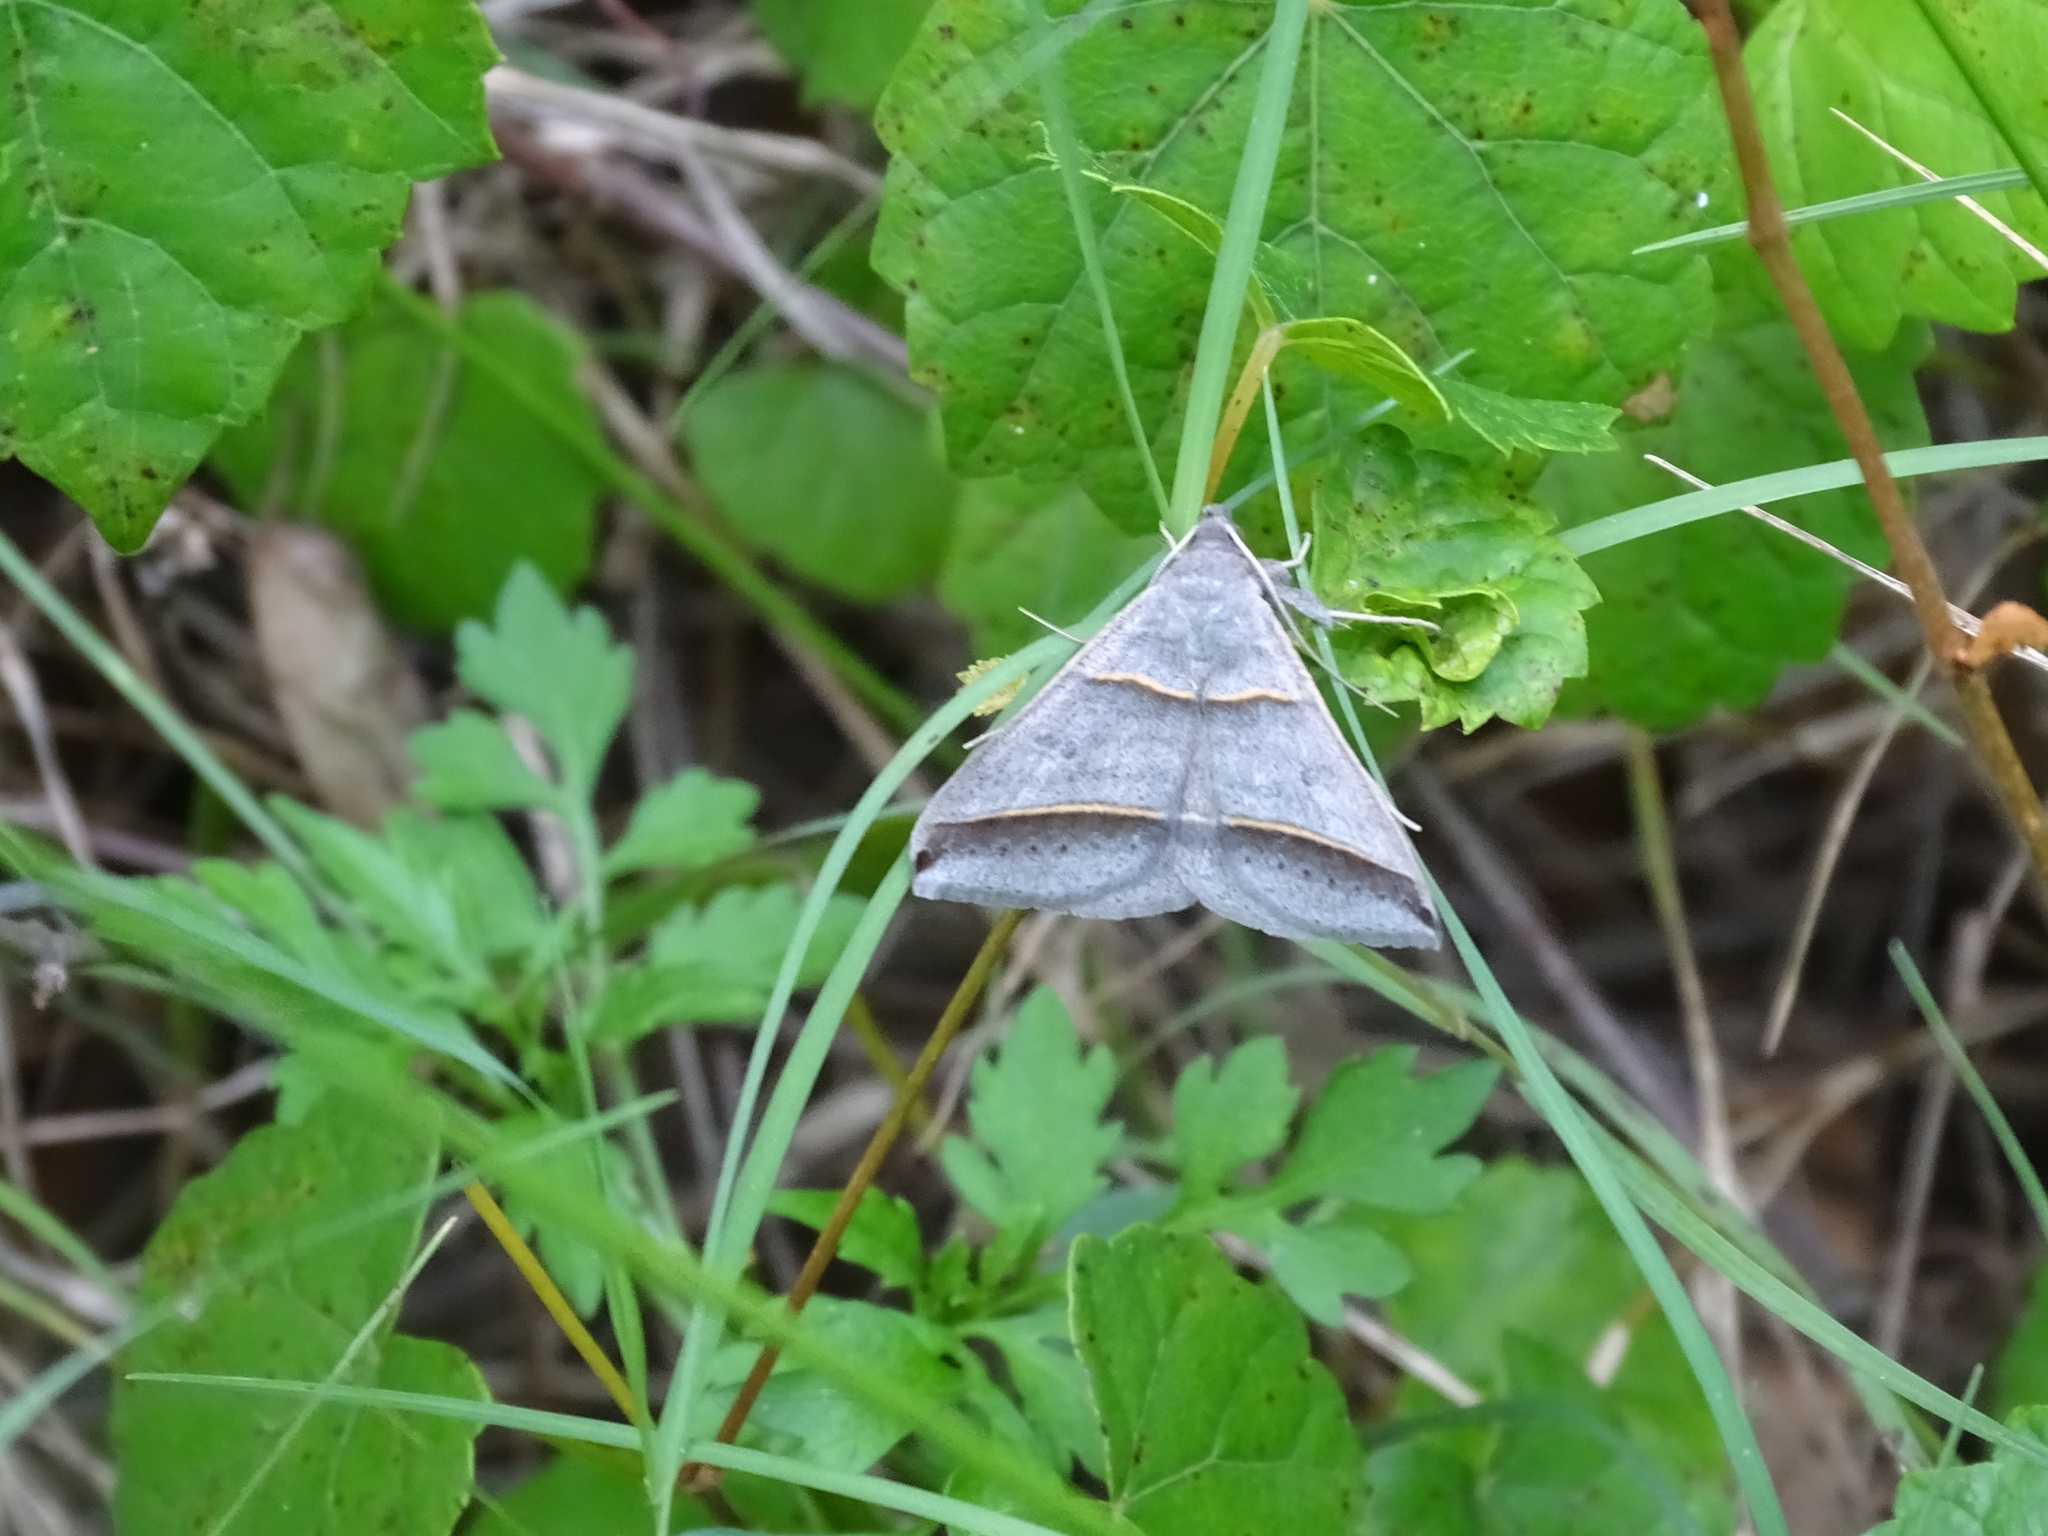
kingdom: Animalia
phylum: Arthropoda
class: Insecta
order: Lepidoptera
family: Erebidae
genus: Ptichodis
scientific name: Ptichodis vinculum
